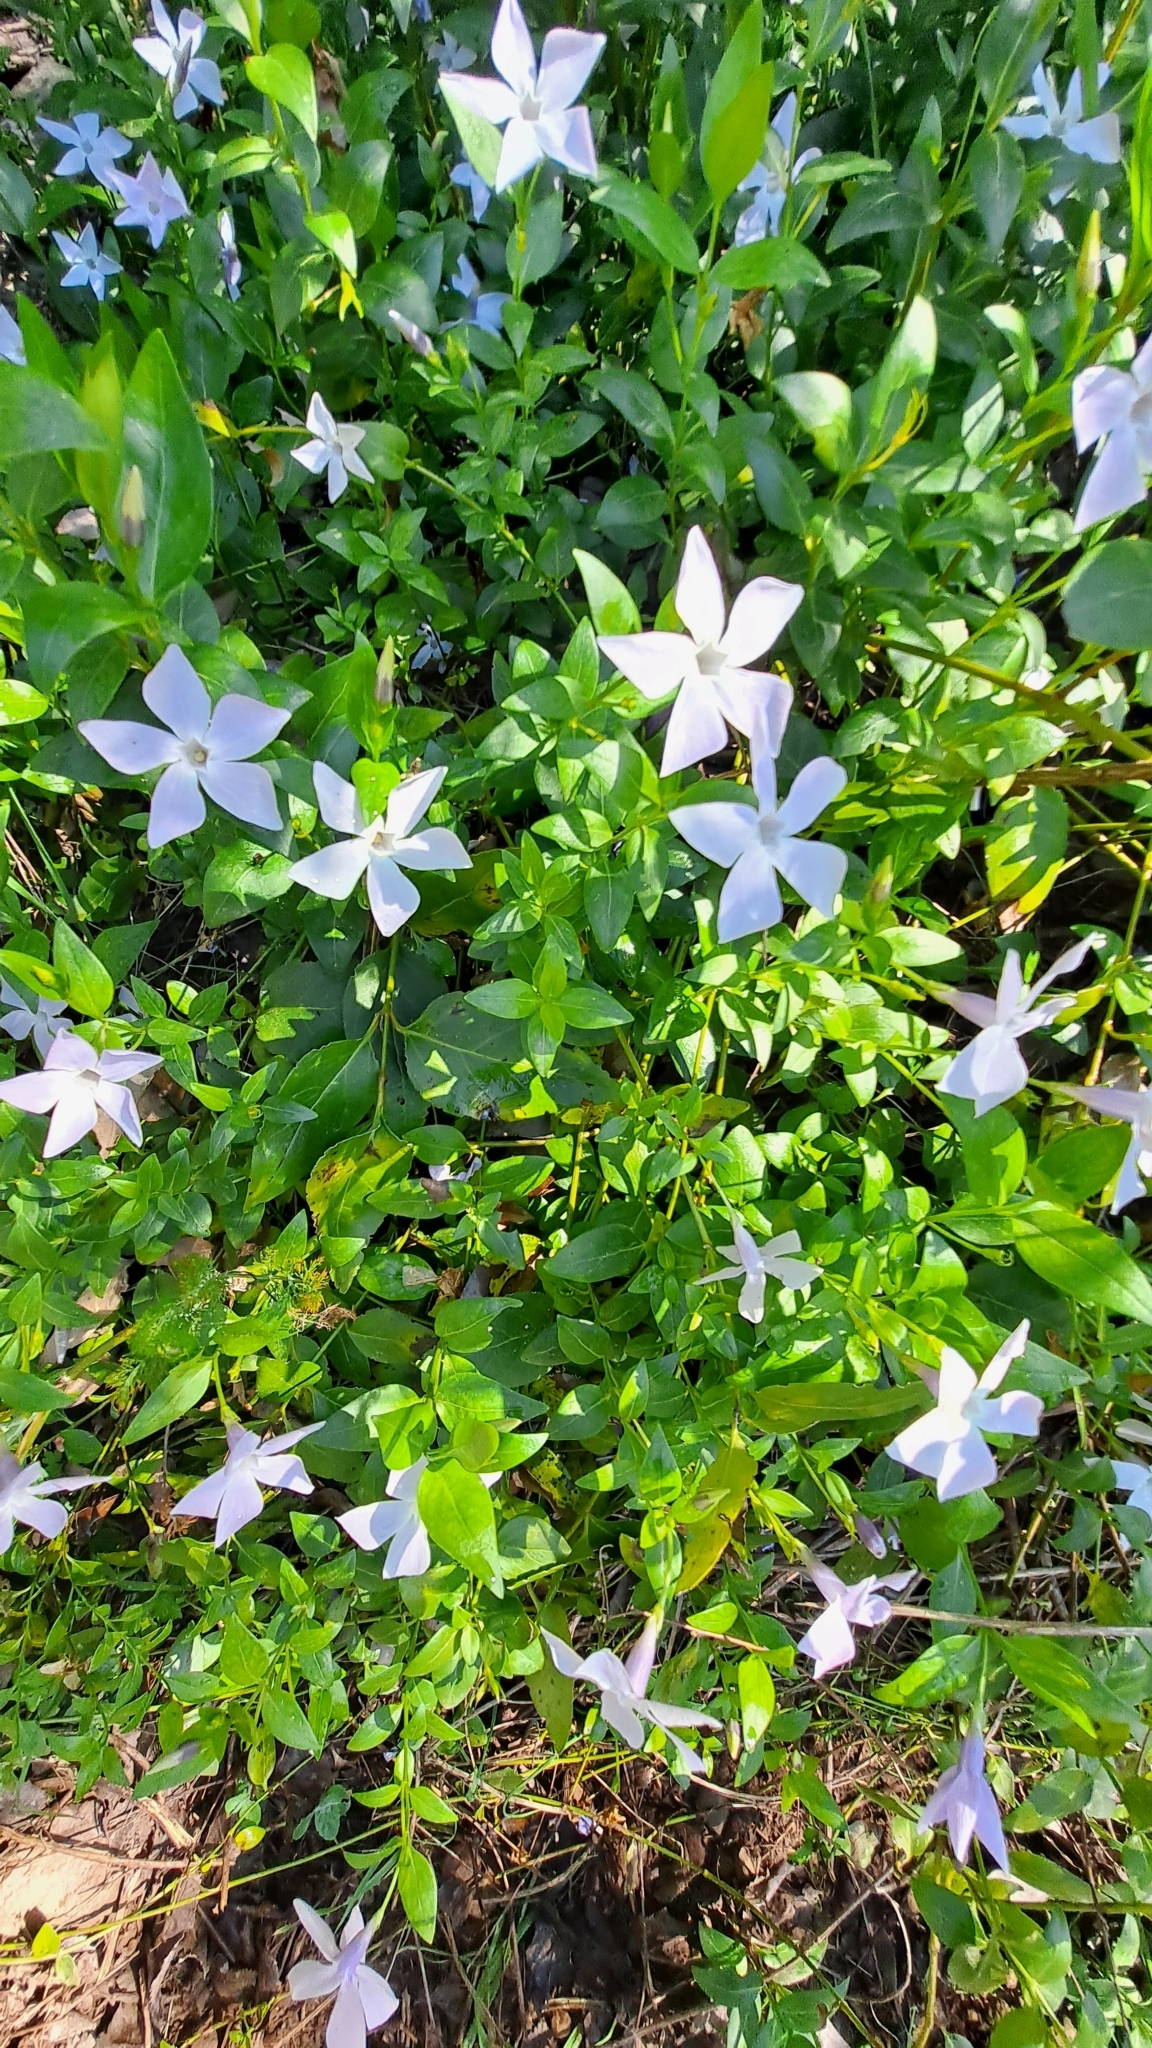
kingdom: Plantae
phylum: Tracheophyta
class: Magnoliopsida
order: Gentianales
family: Apocynaceae
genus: Vinca
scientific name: Vinca difformis
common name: Intermediate periwinkle
